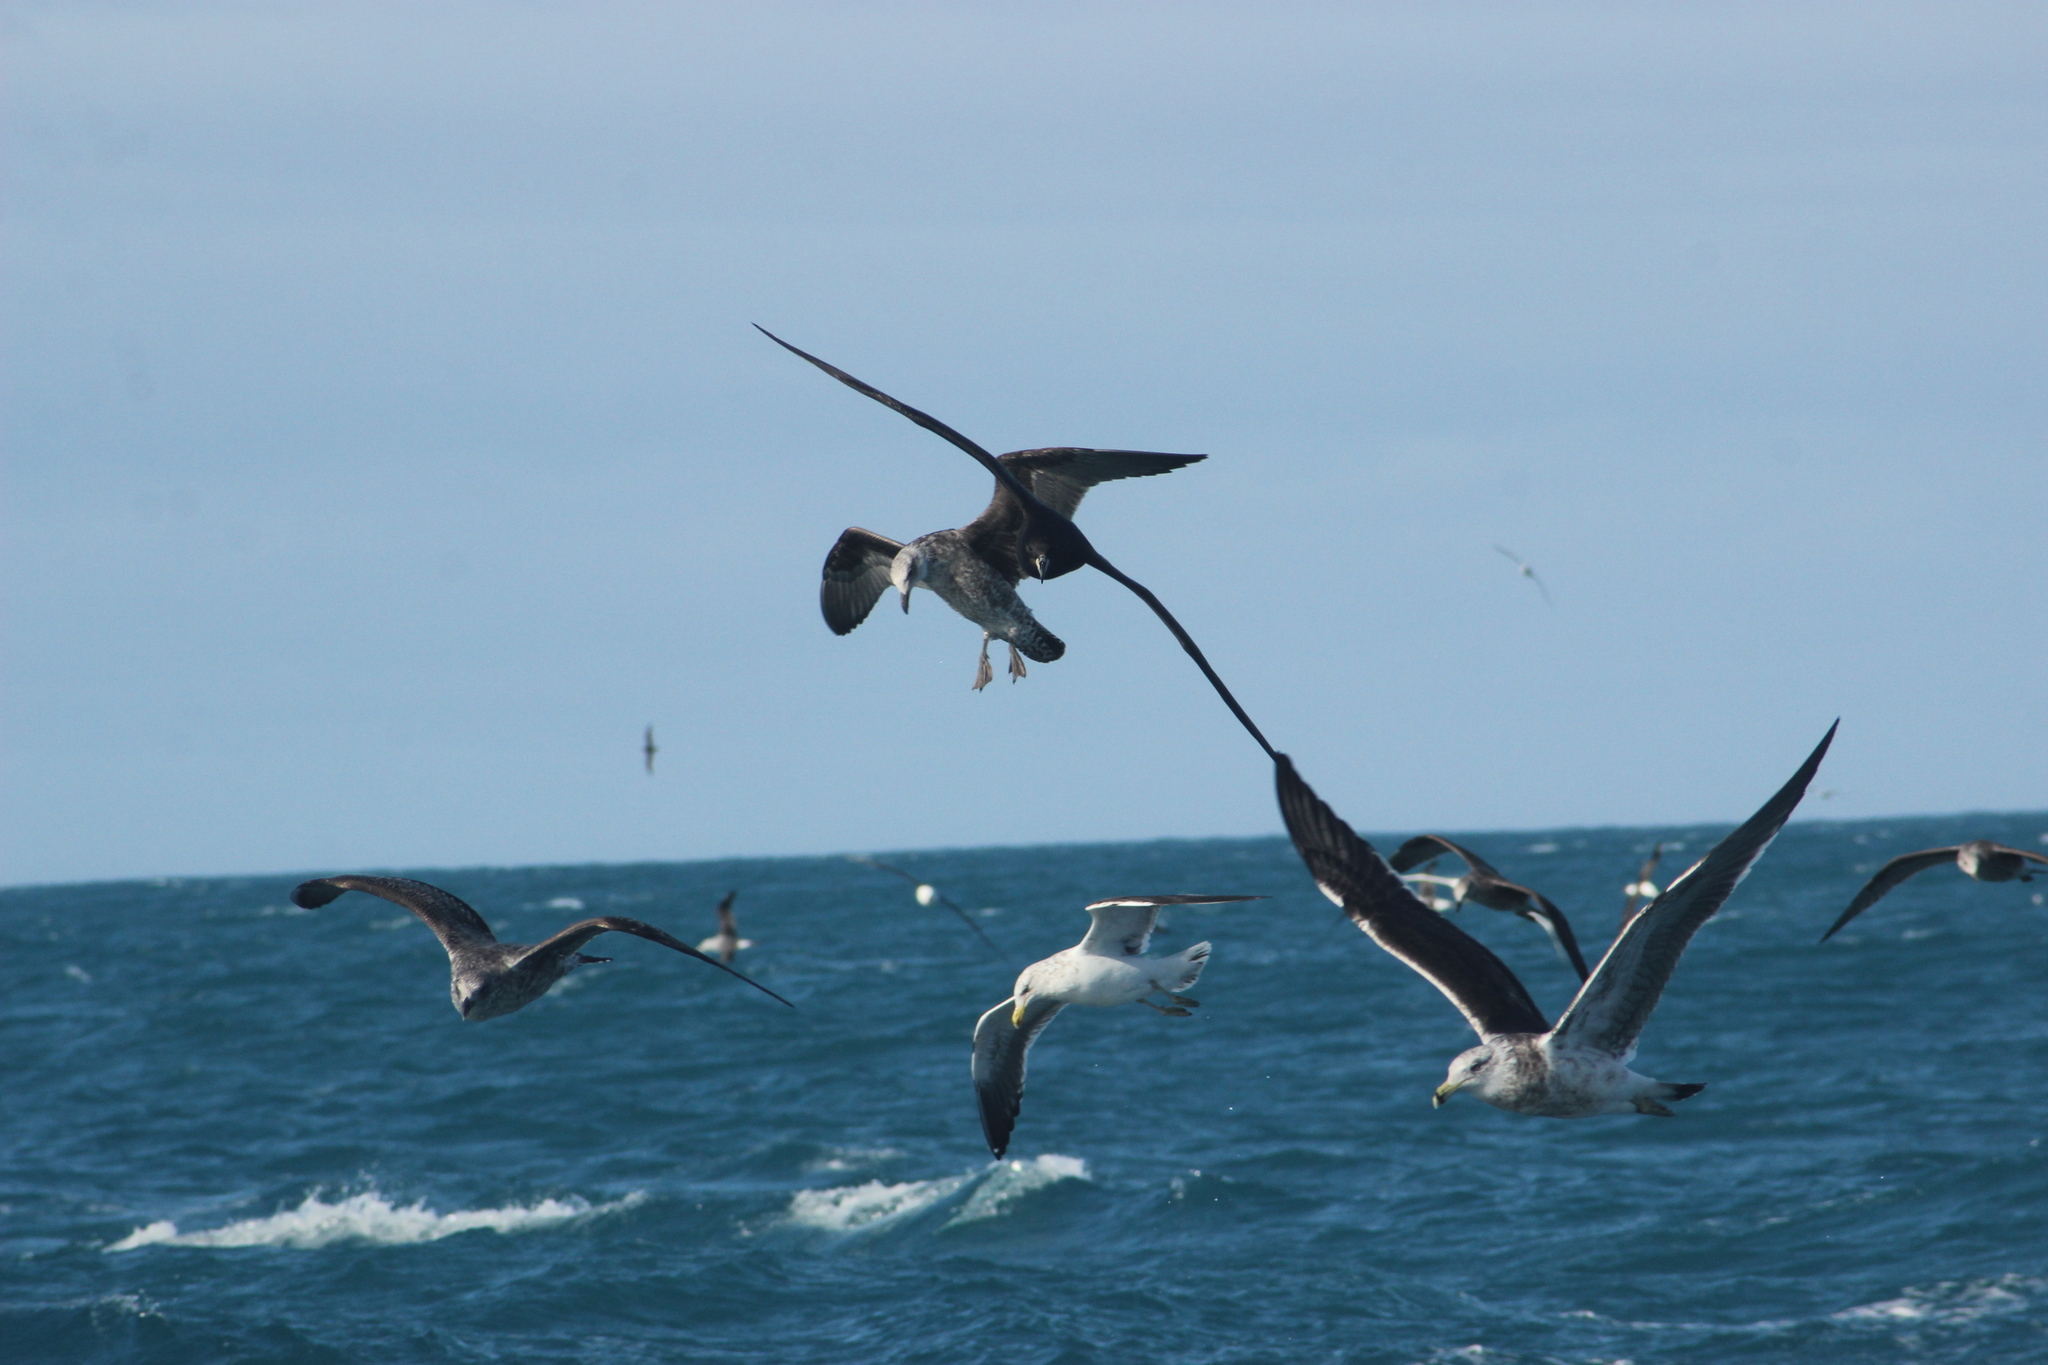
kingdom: Animalia
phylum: Chordata
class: Aves
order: Charadriiformes
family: Laridae
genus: Larus
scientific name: Larus dominicanus
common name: Kelp gull
